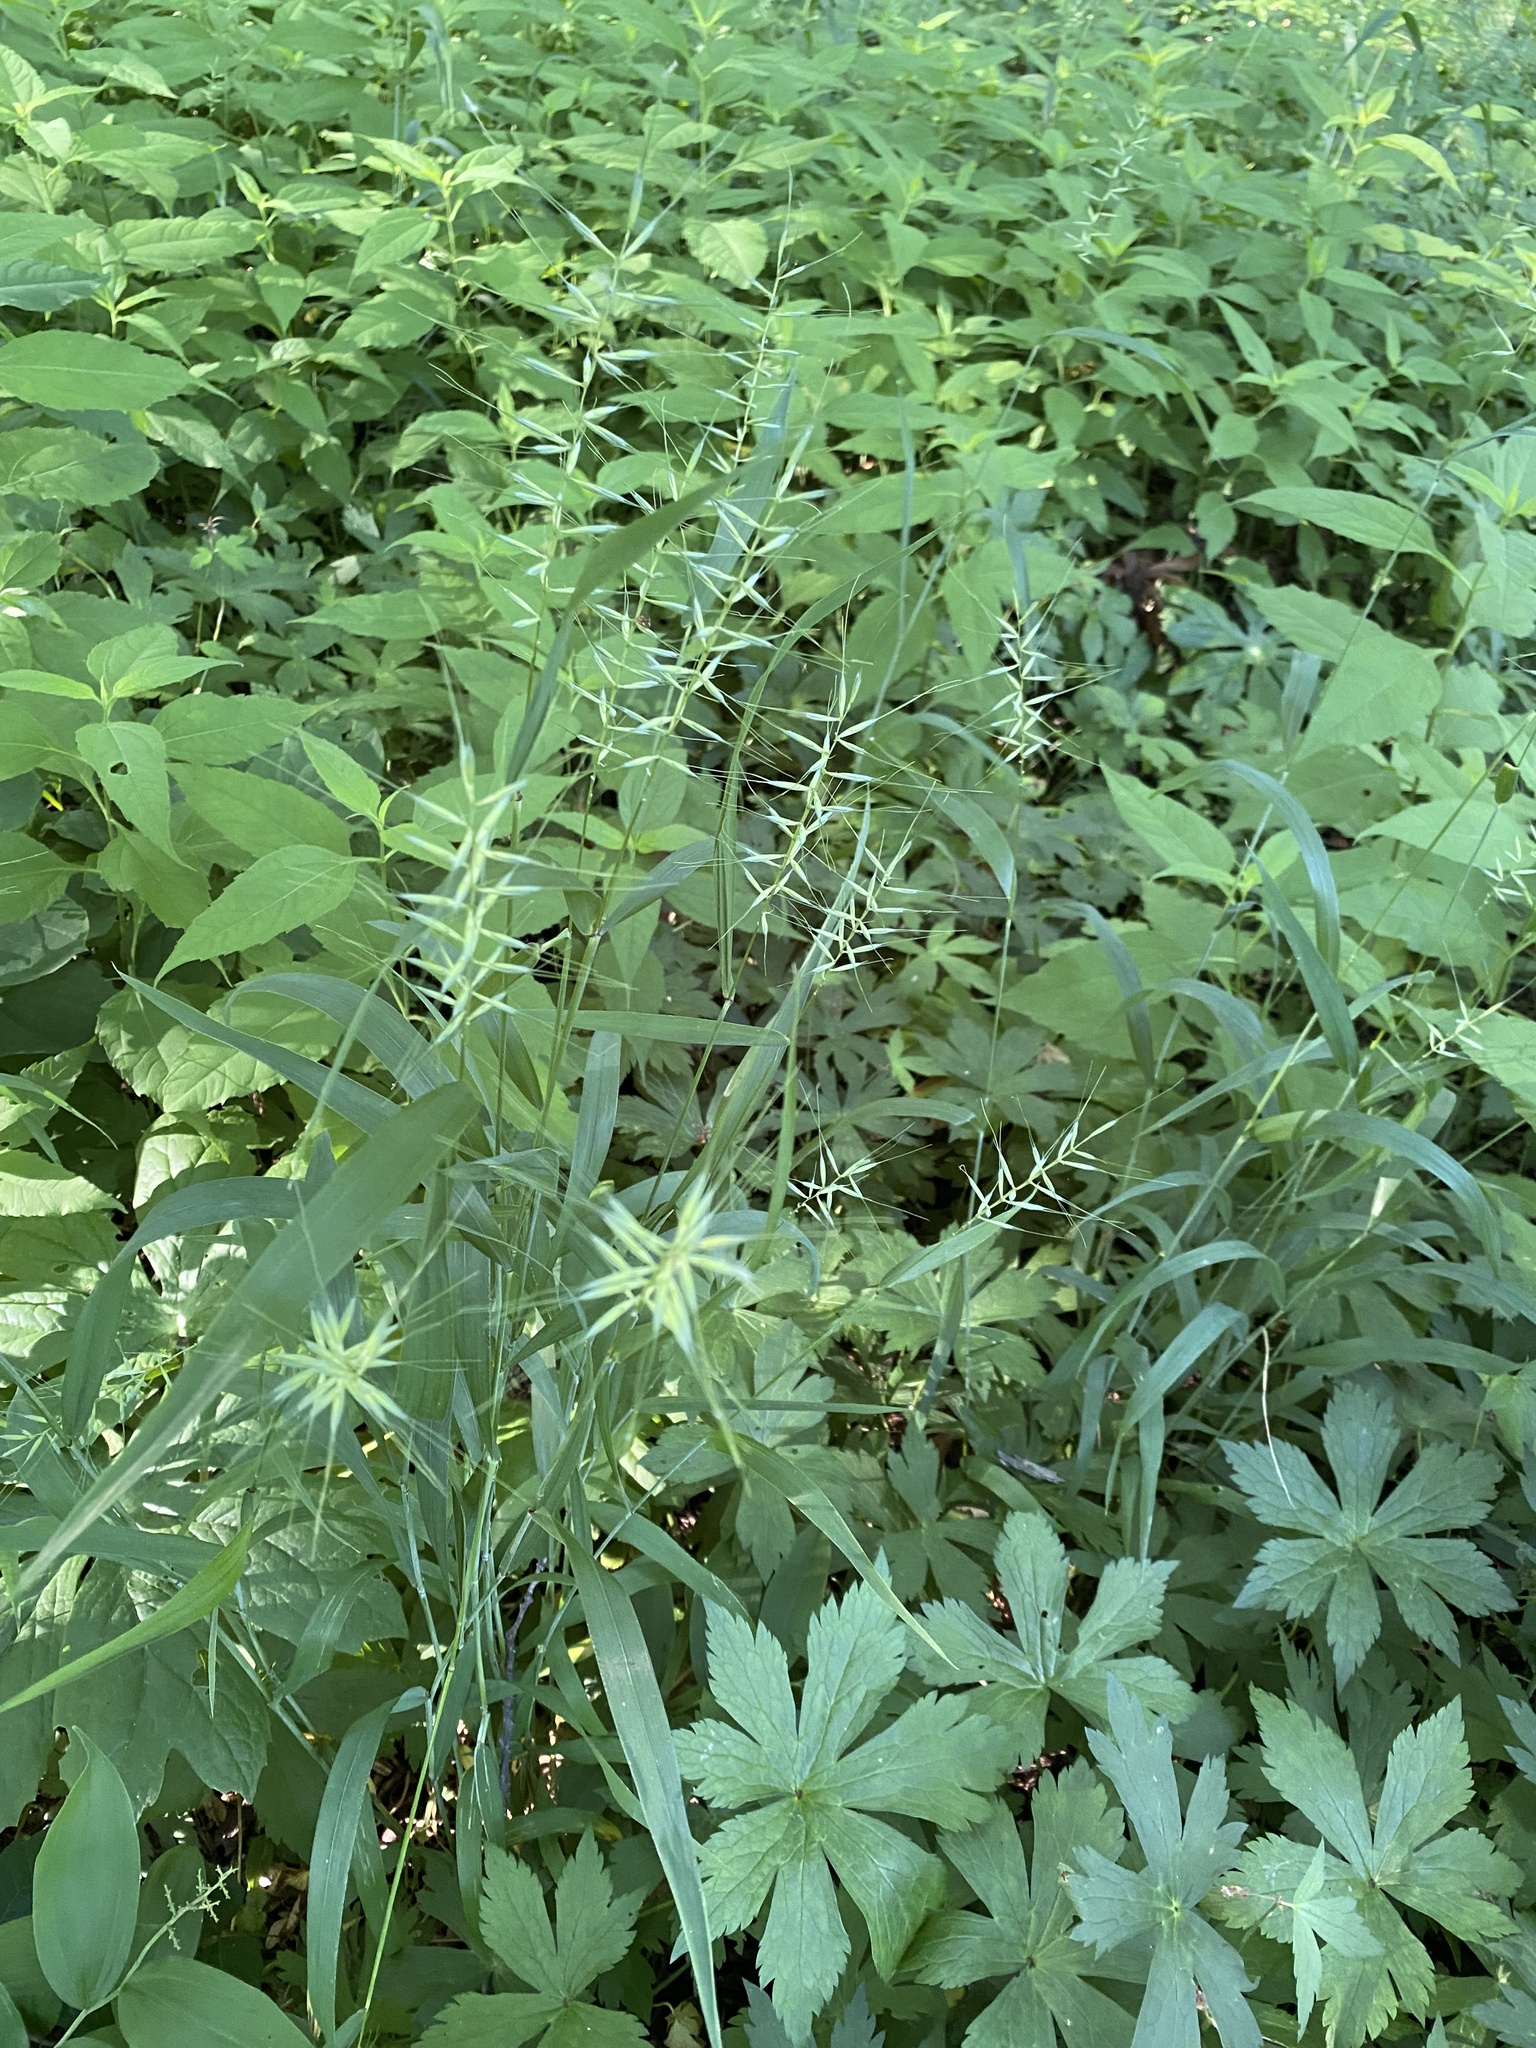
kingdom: Plantae
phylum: Tracheophyta
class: Liliopsida
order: Poales
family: Poaceae
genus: Elymus
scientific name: Elymus hystrix
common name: Bottlebrush grass
